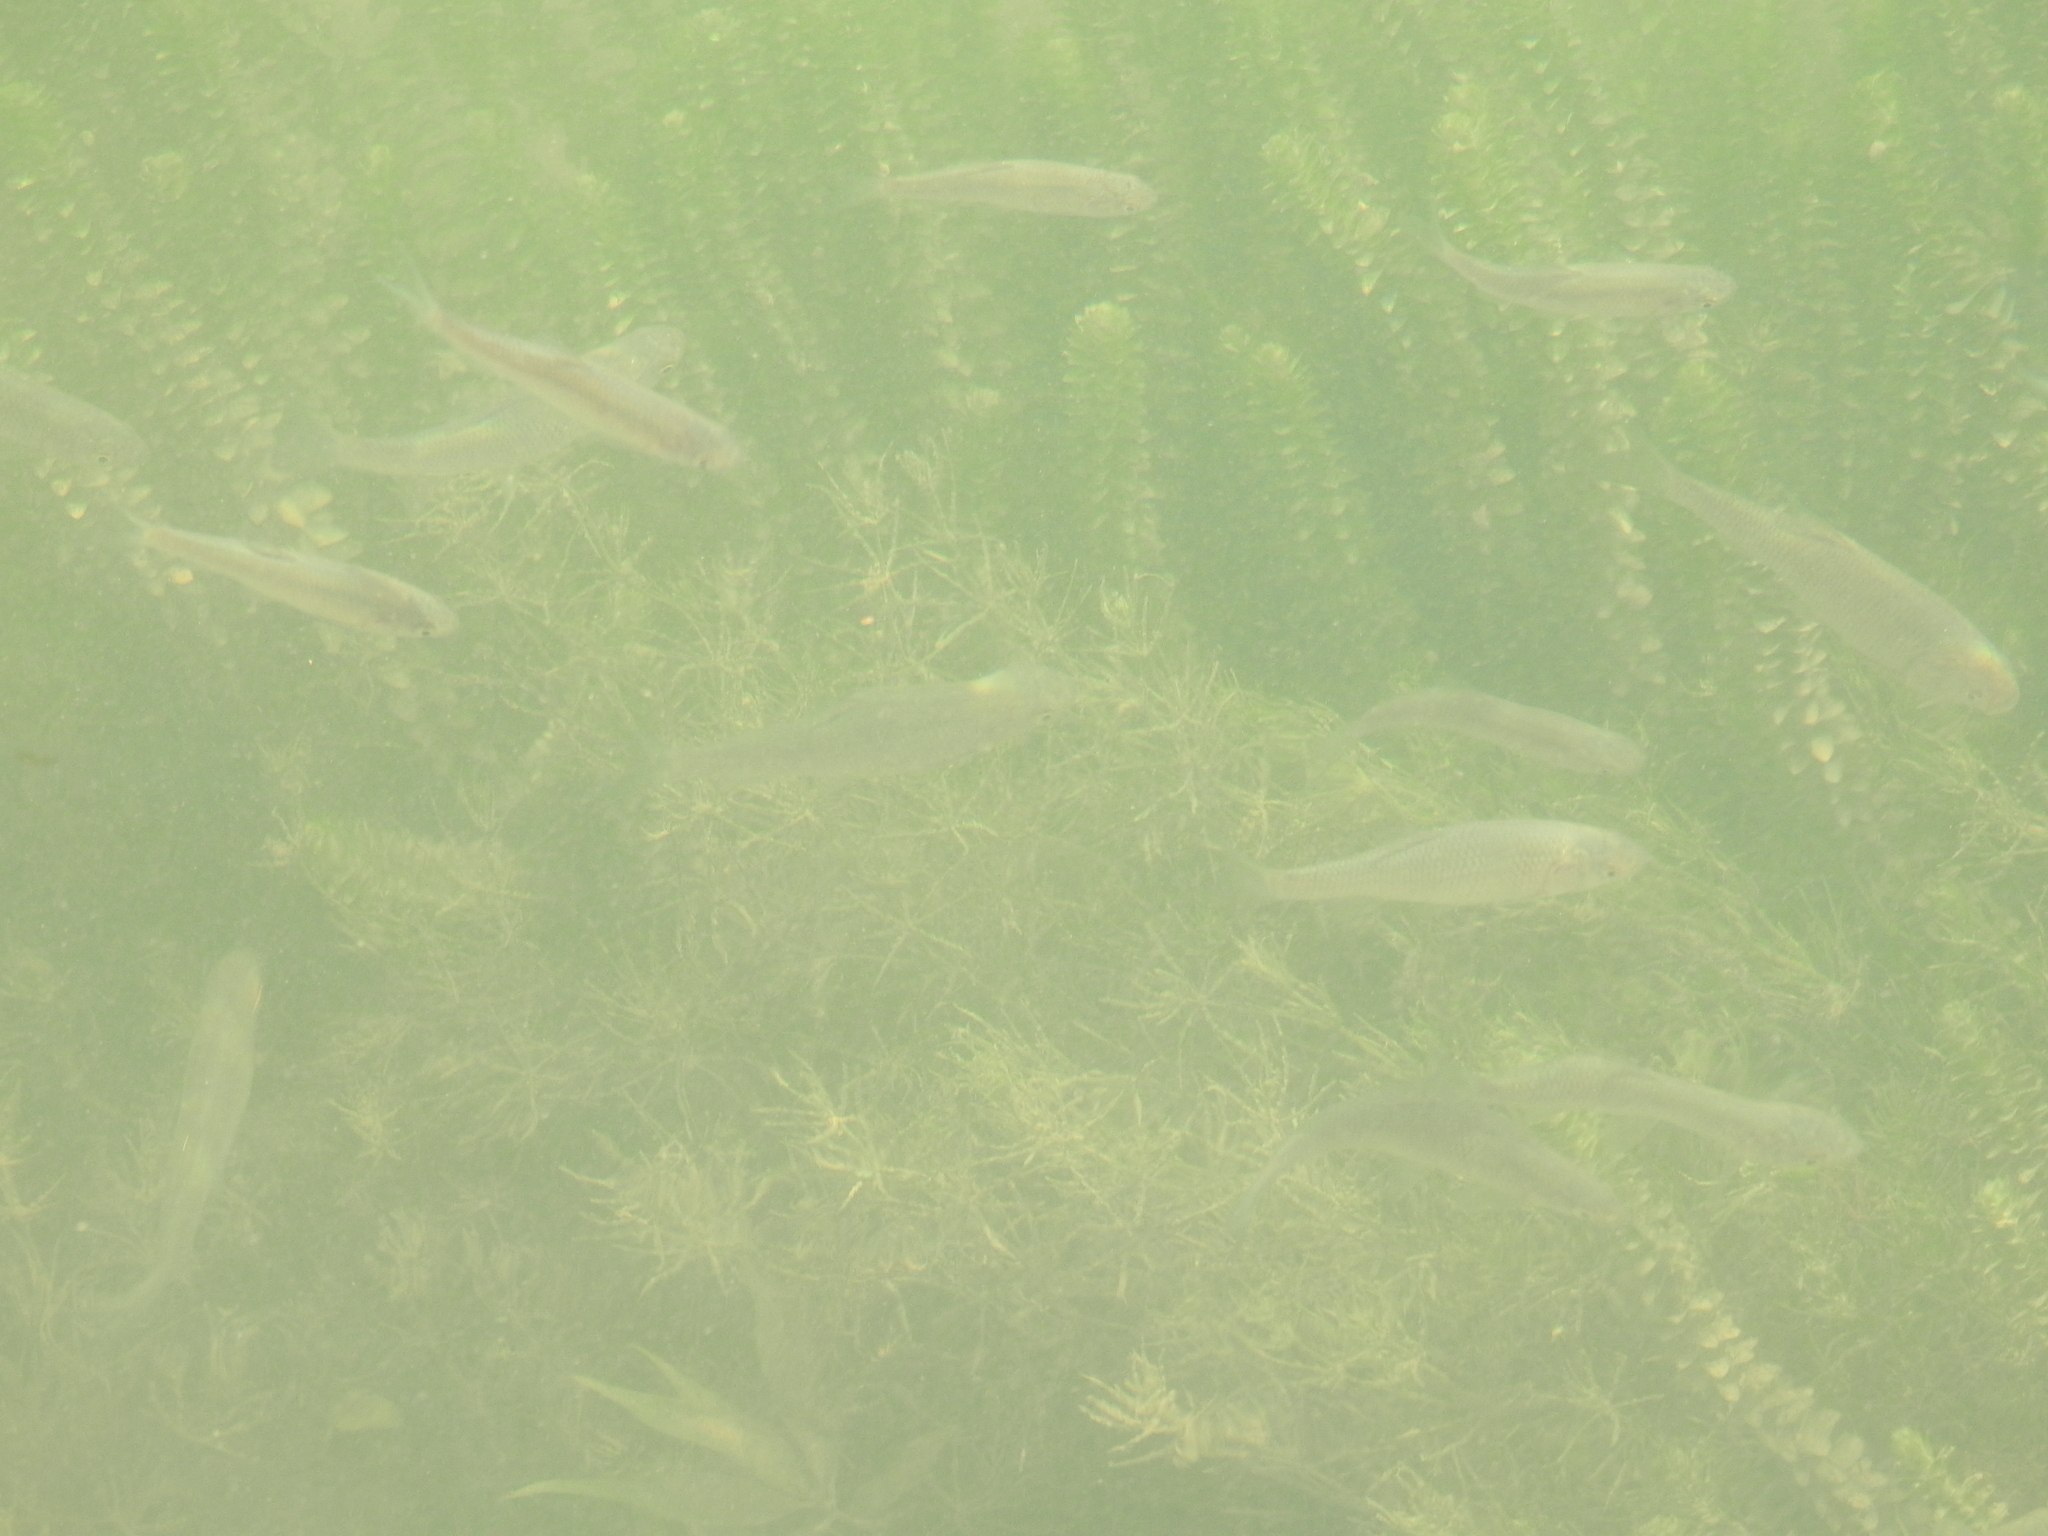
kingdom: Animalia
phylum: Chordata
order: Cypriniformes
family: Cyprinidae
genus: Rutilus
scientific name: Rutilus rutilus
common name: Roach
